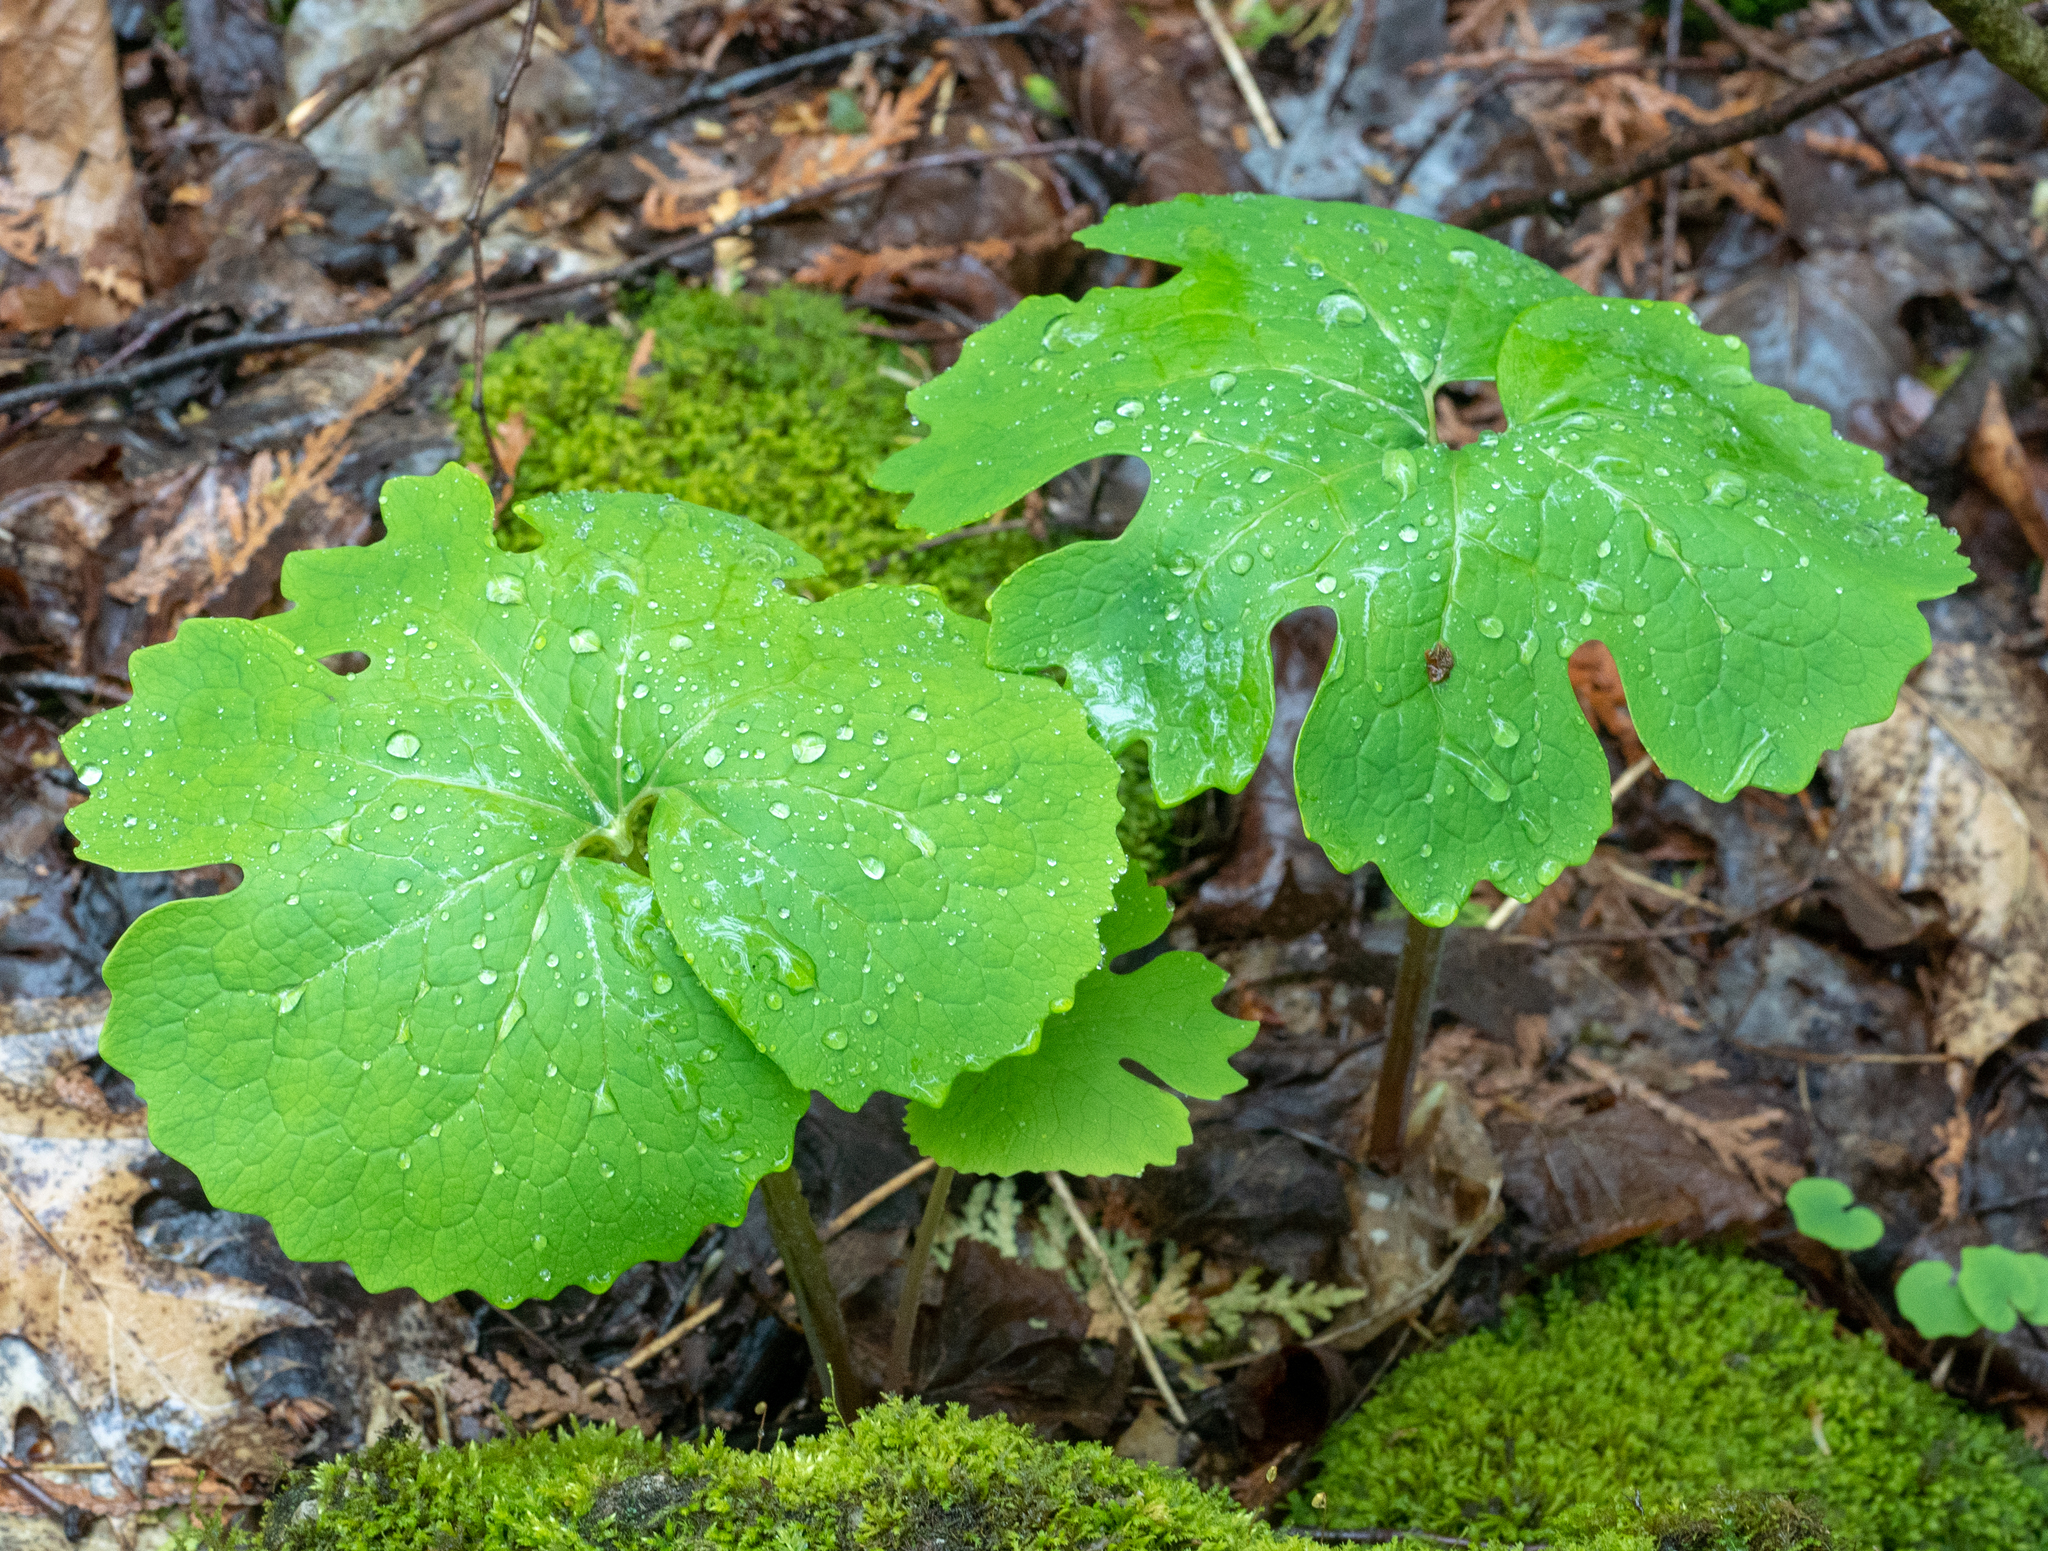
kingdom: Plantae
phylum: Tracheophyta
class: Magnoliopsida
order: Ranunculales
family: Papaveraceae
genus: Sanguinaria
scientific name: Sanguinaria canadensis
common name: Bloodroot
